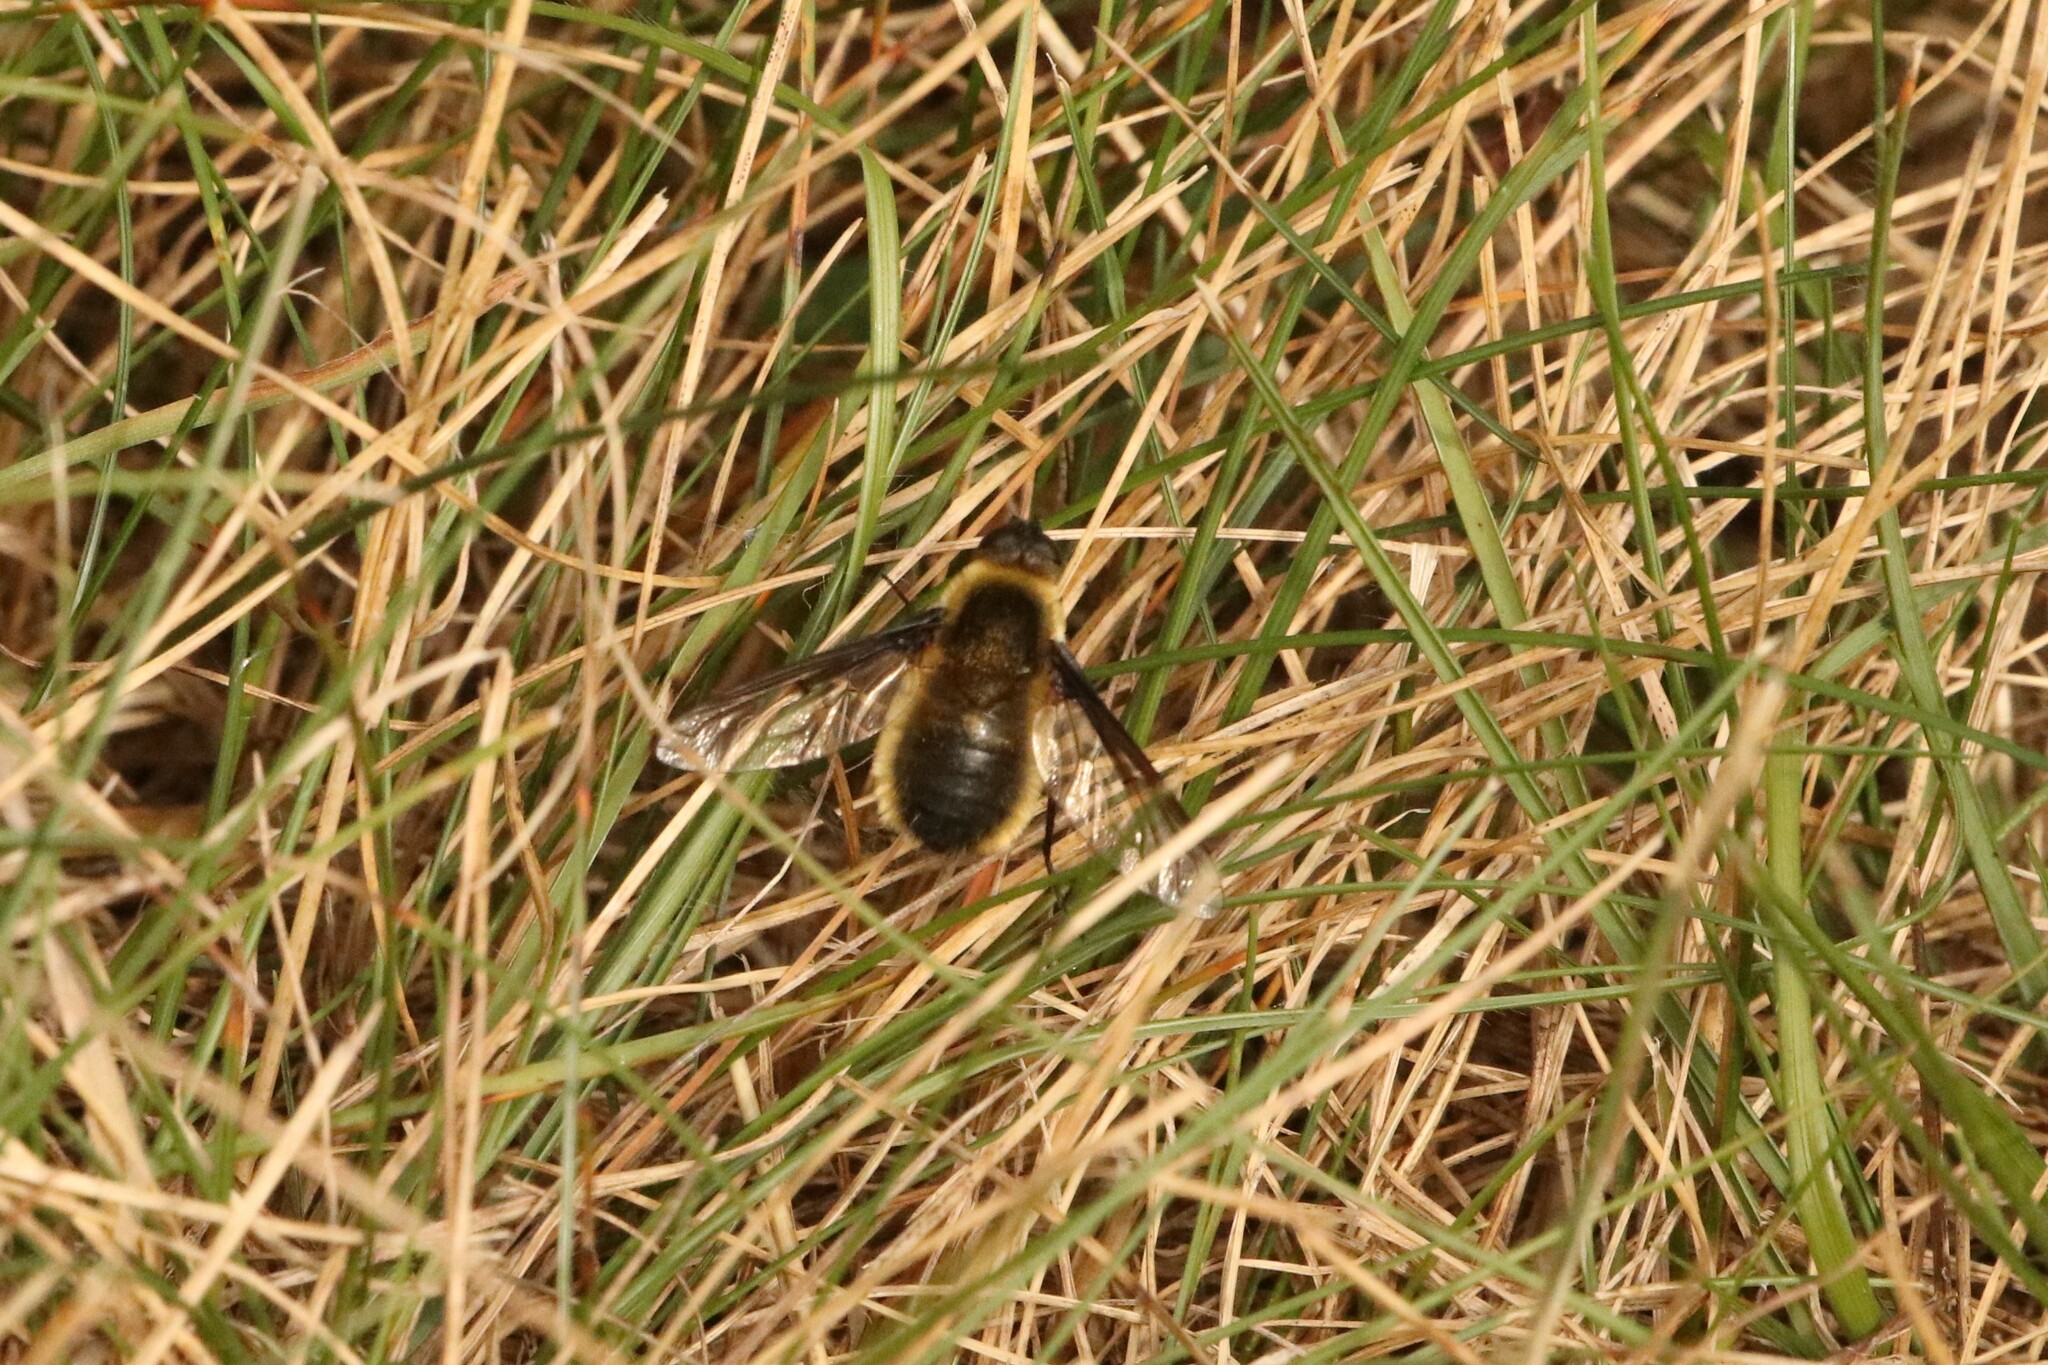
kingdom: Animalia
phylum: Arthropoda
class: Insecta
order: Diptera
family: Bombyliidae
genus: Villa
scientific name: Villa fulviana
